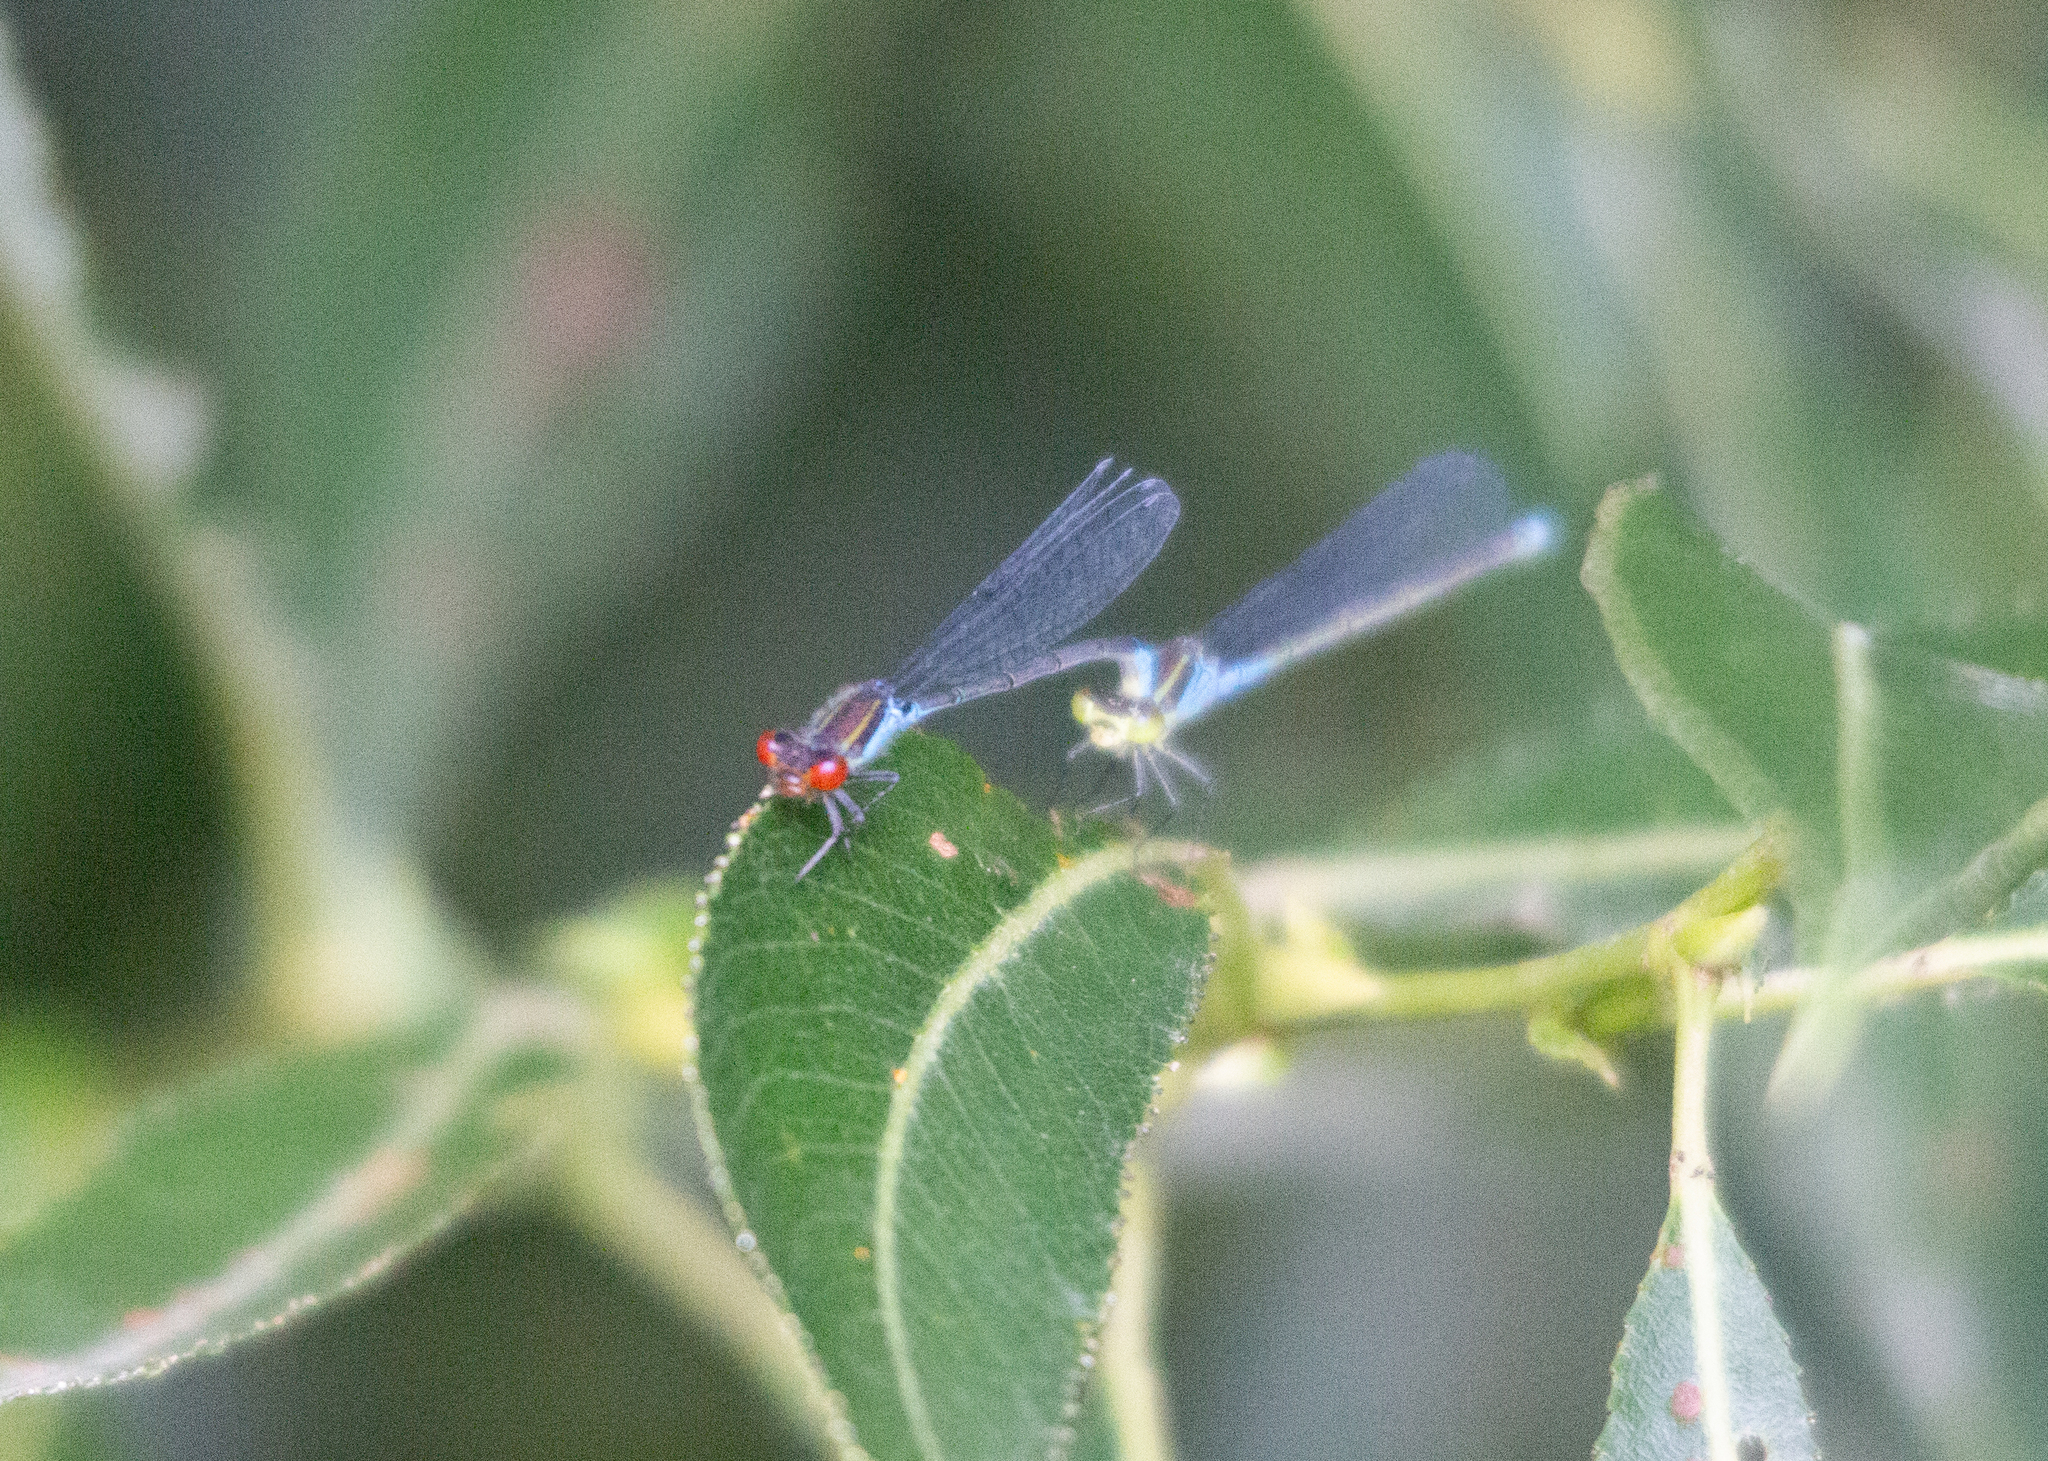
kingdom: Animalia
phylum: Arthropoda
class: Insecta
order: Odonata
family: Coenagrionidae
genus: Erythromma
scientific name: Erythromma viridulum
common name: Small red-eyed damselfly
